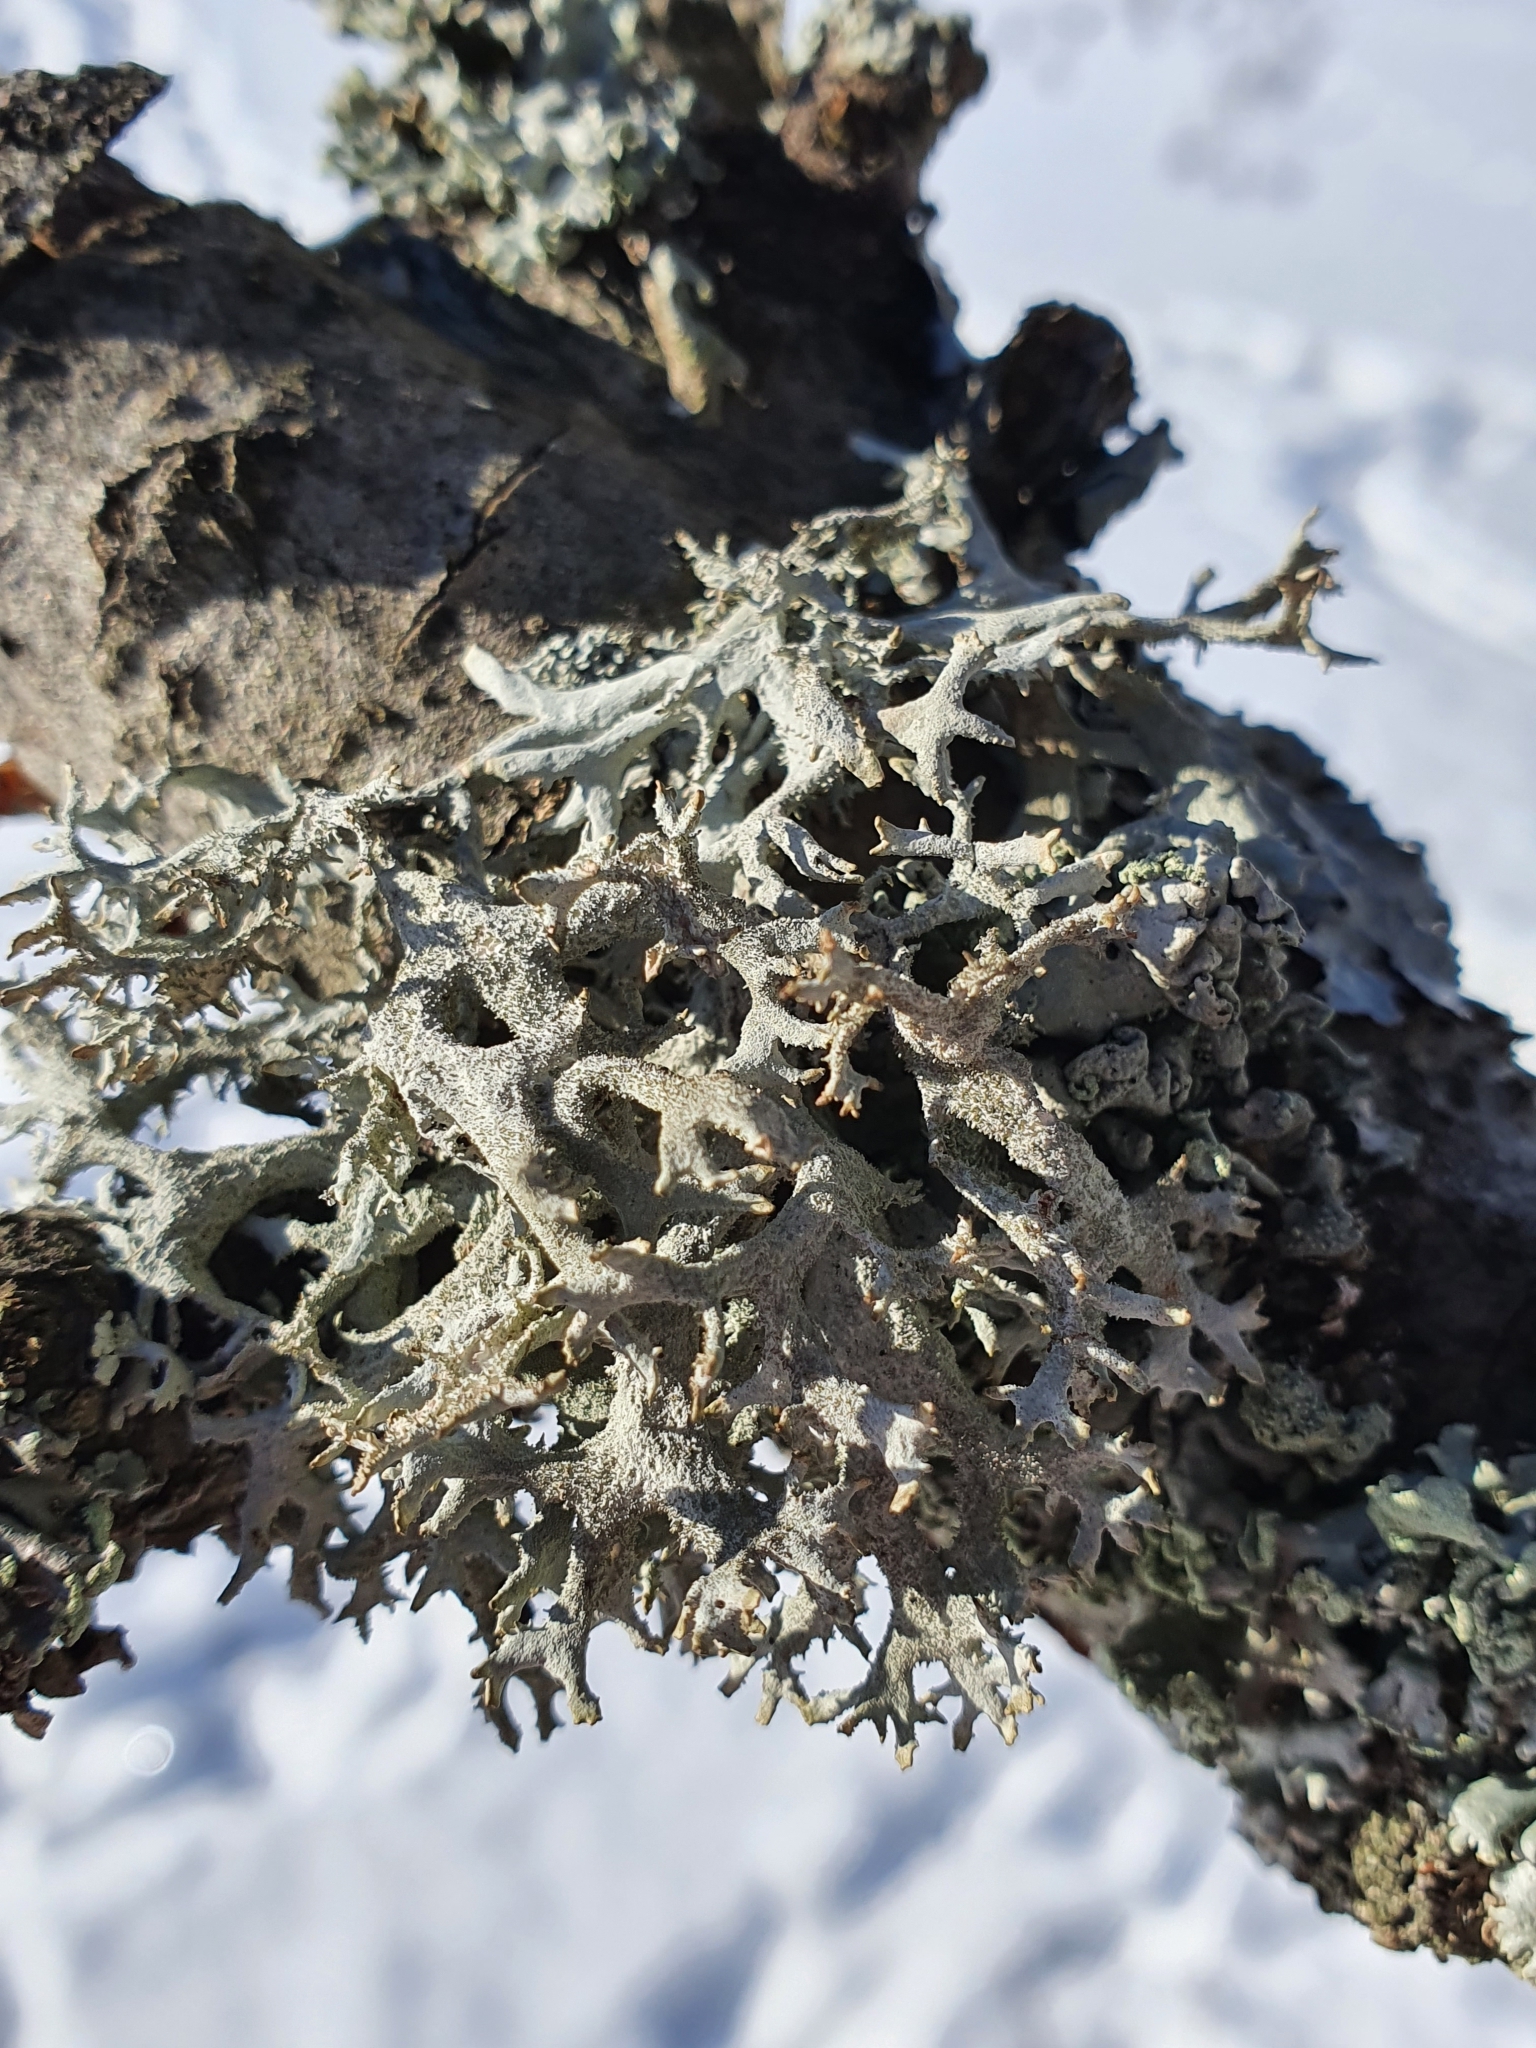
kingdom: Fungi
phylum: Ascomycota
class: Lecanoromycetes
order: Lecanorales
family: Parmeliaceae
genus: Pseudevernia
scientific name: Pseudevernia furfuracea
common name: Tree moss
